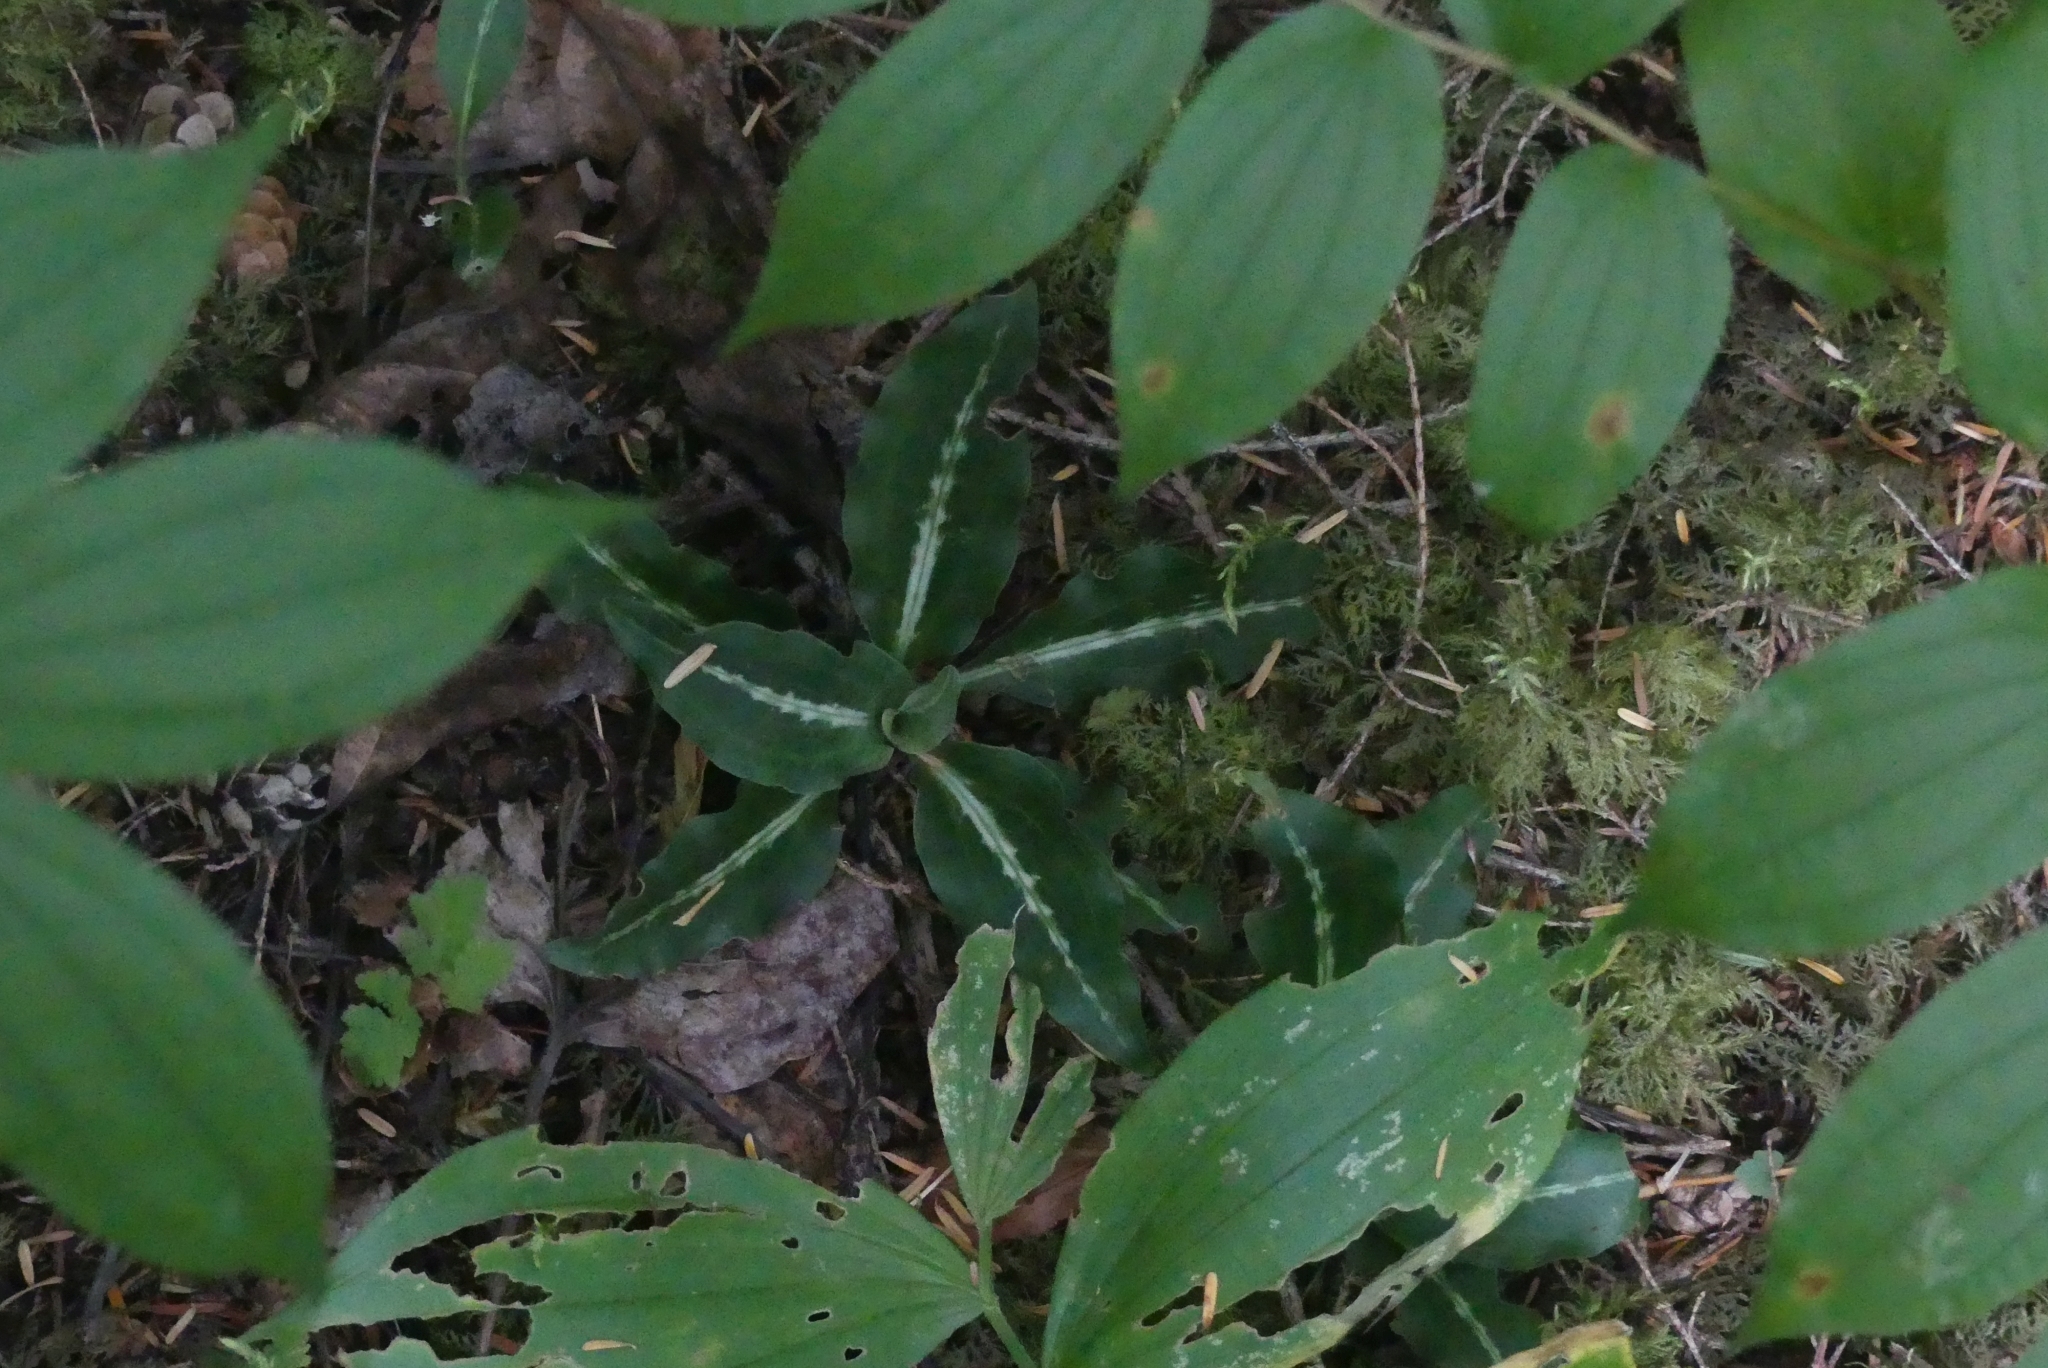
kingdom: Plantae
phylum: Tracheophyta
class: Liliopsida
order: Asparagales
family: Orchidaceae
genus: Goodyera
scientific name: Goodyera oblongifolia
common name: Giant rattlesnake-plantain
